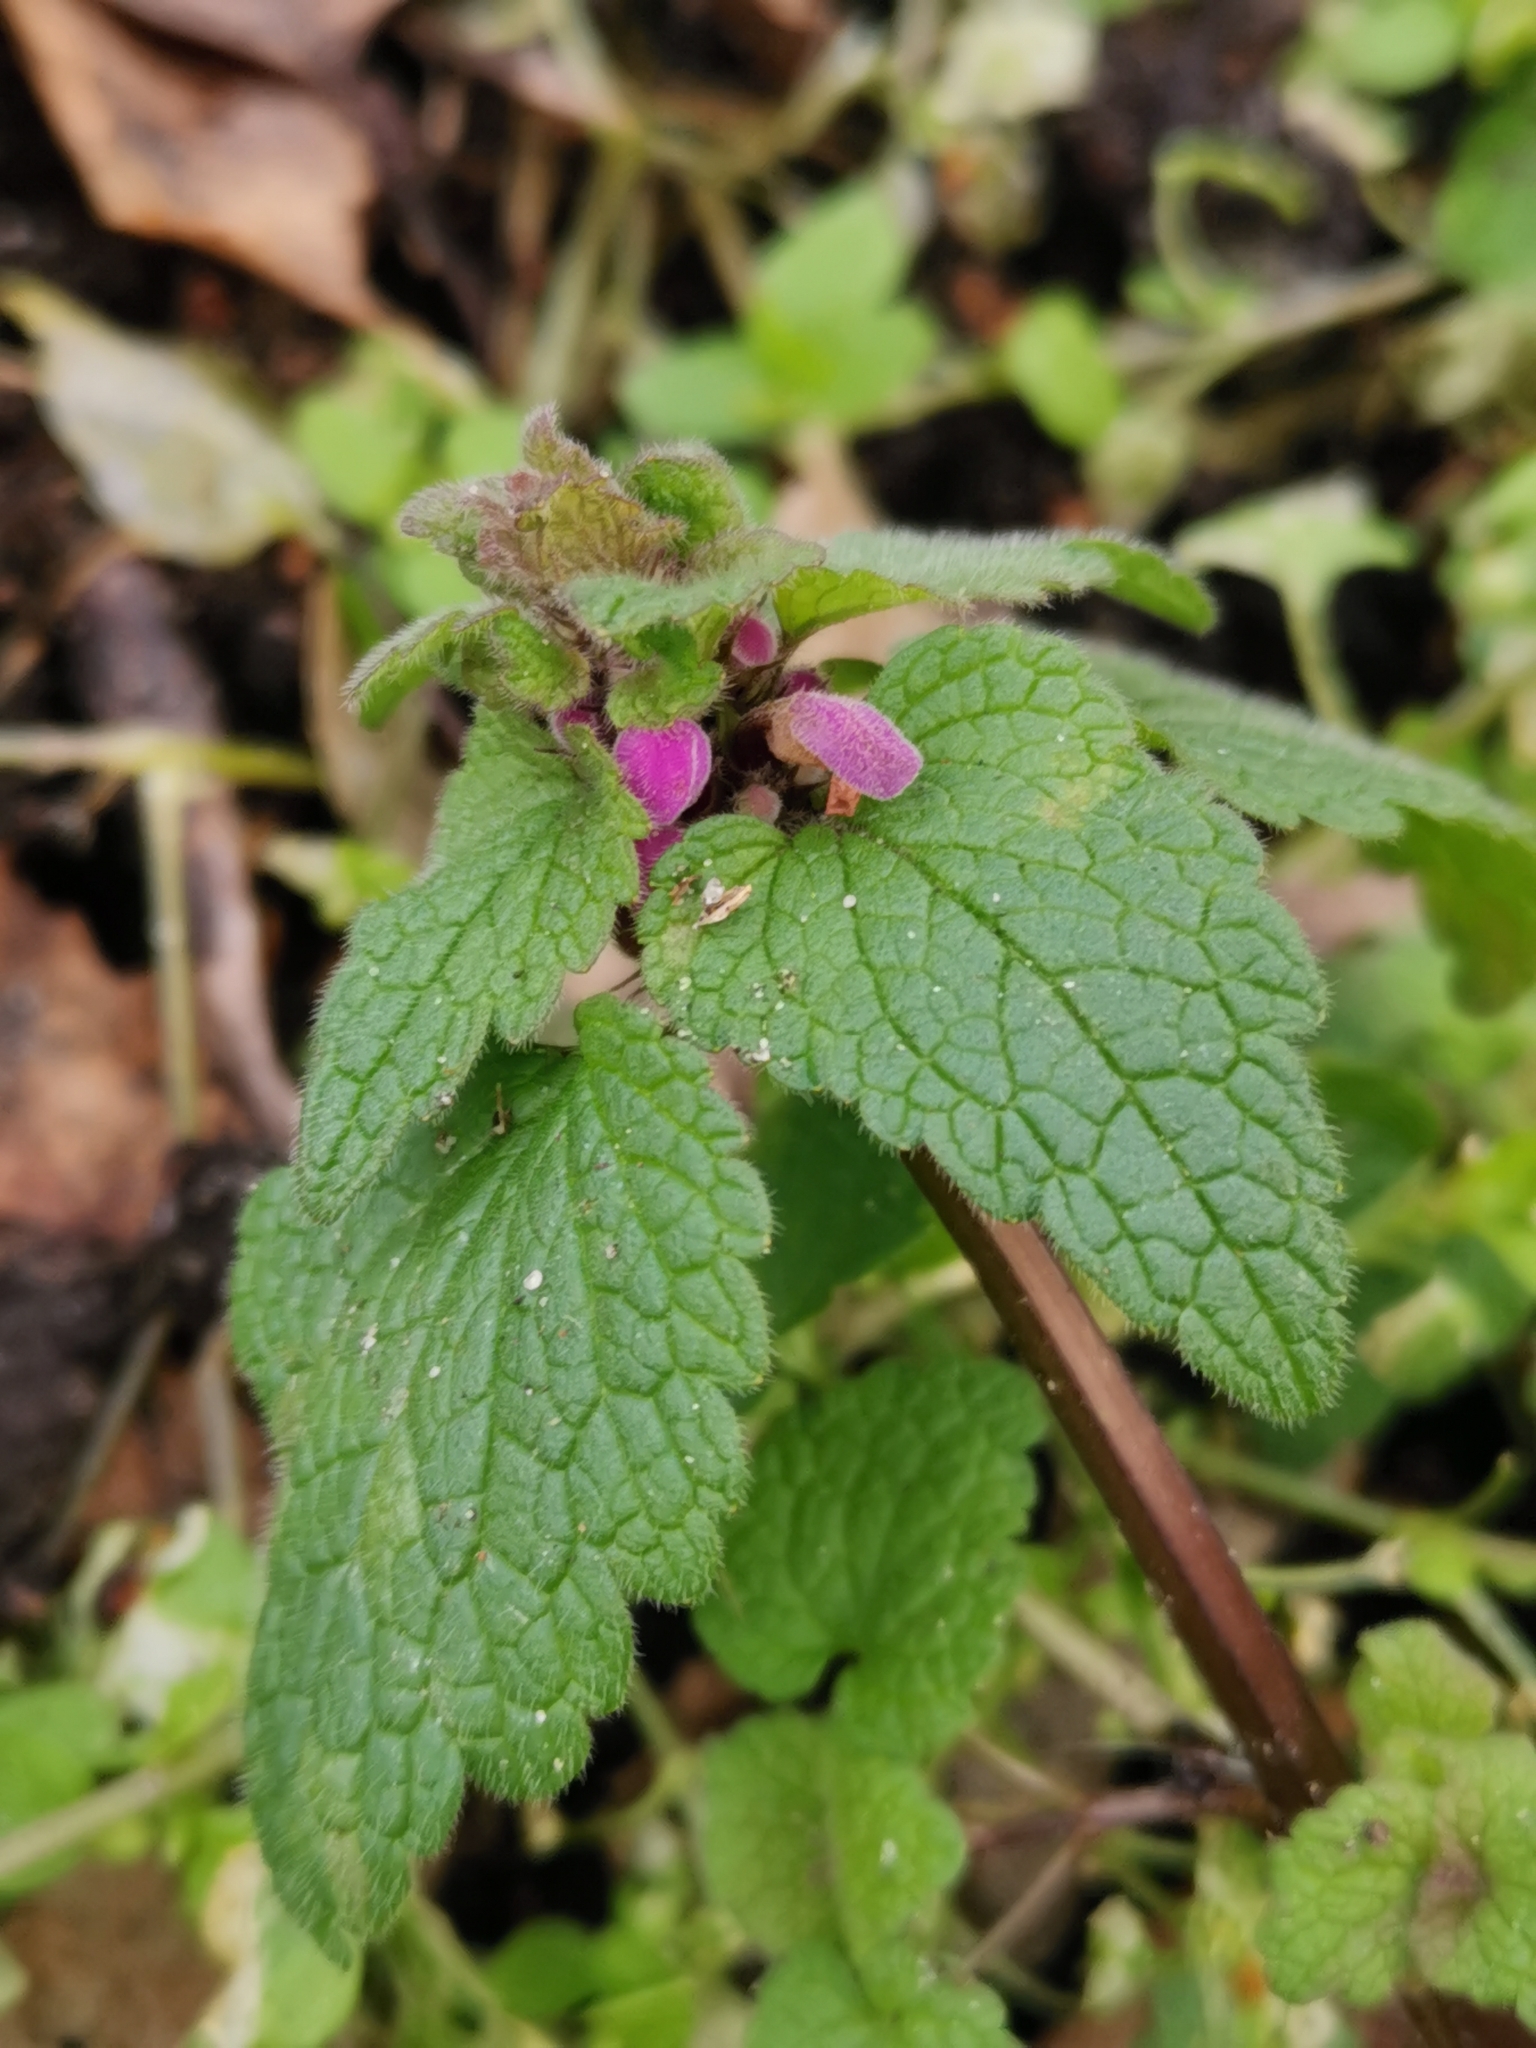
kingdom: Plantae
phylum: Tracheophyta
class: Magnoliopsida
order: Lamiales
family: Lamiaceae
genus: Lamium
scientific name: Lamium purpureum
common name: Red dead-nettle
